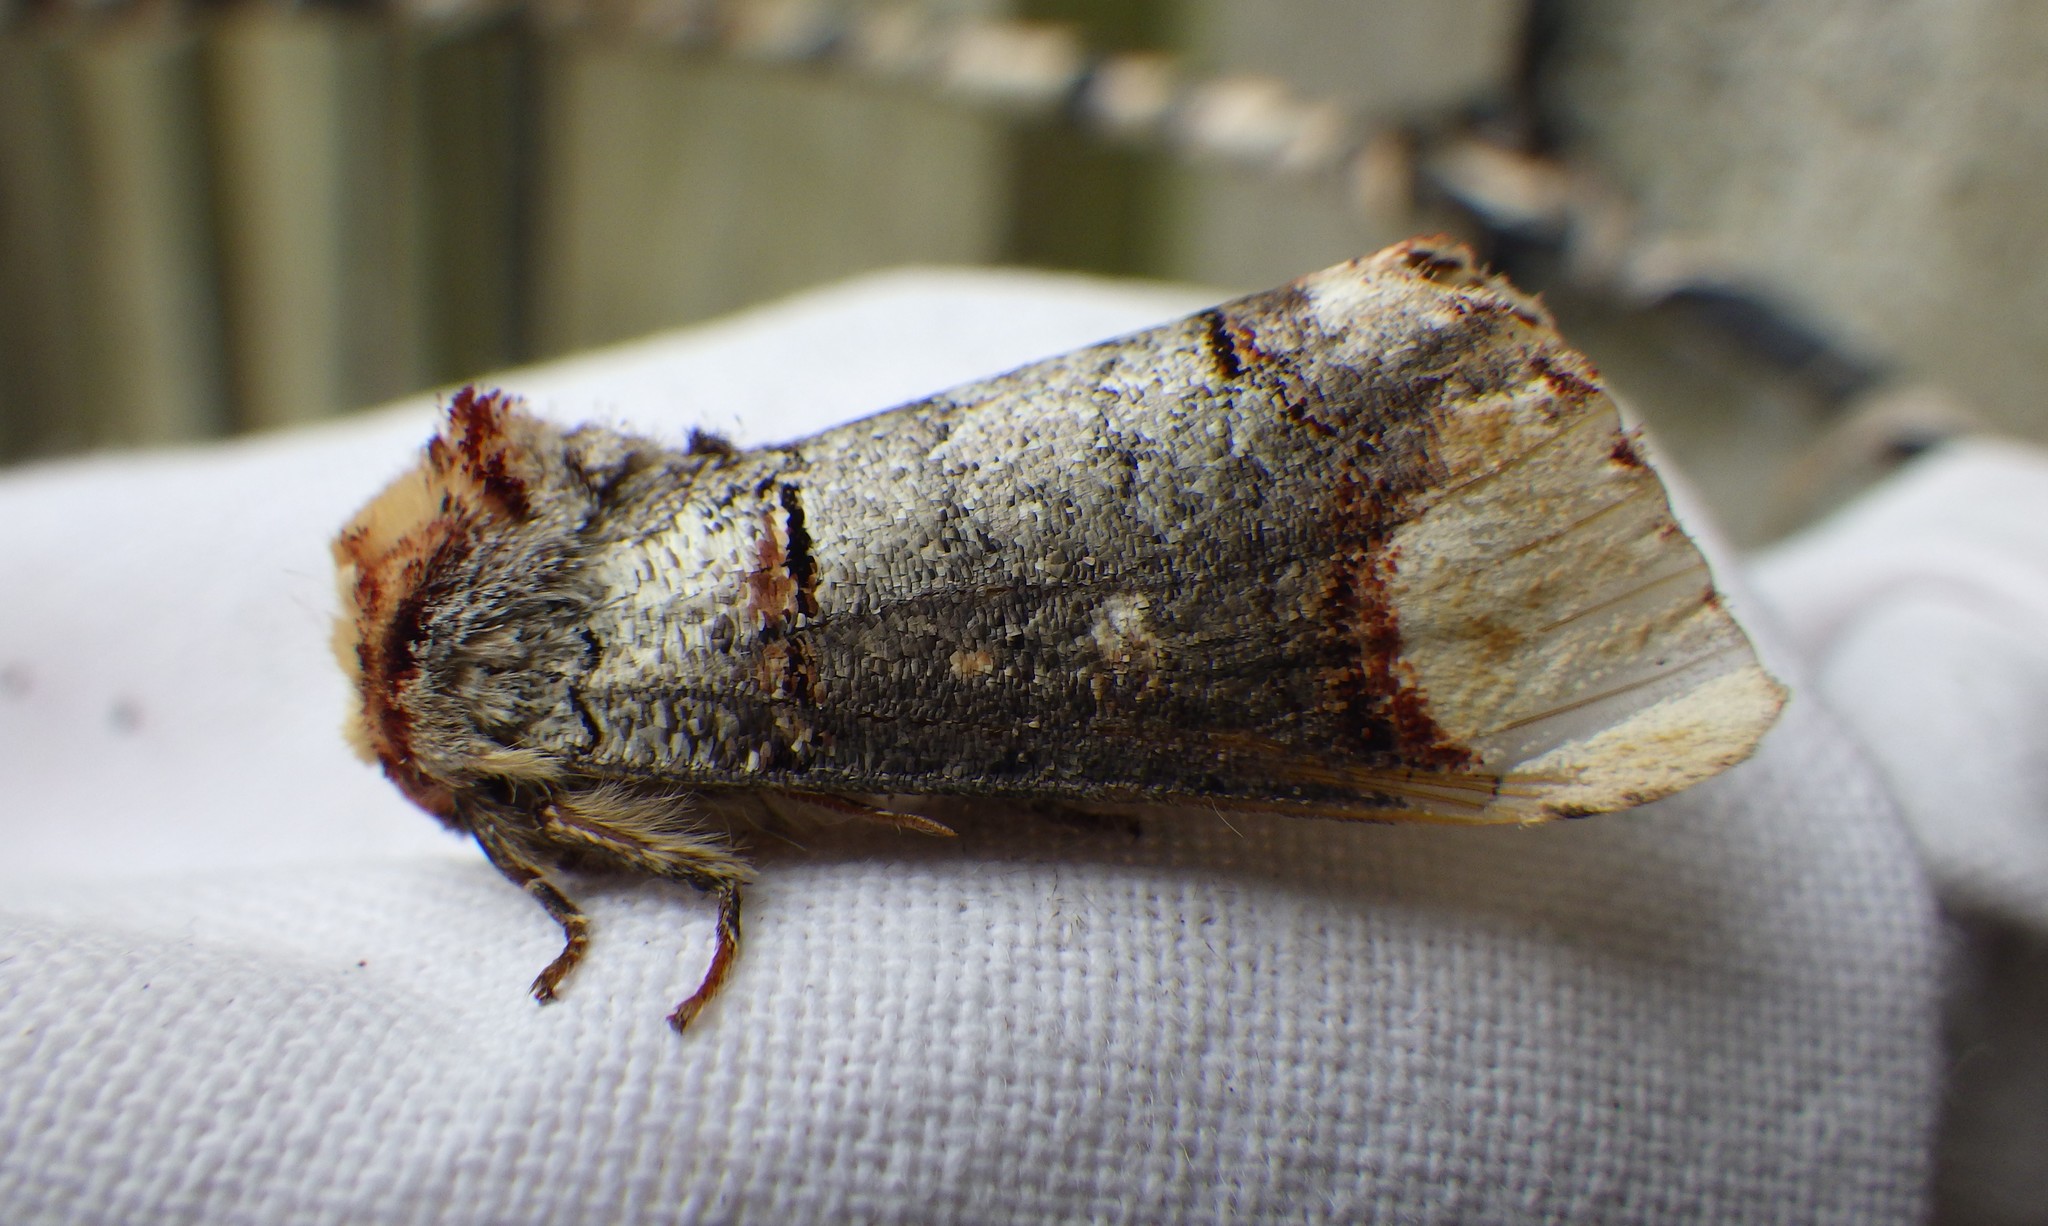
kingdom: Animalia
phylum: Arthropoda
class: Insecta
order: Lepidoptera
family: Notodontidae
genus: Phalera
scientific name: Phalera bucephala
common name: Buff-tip
